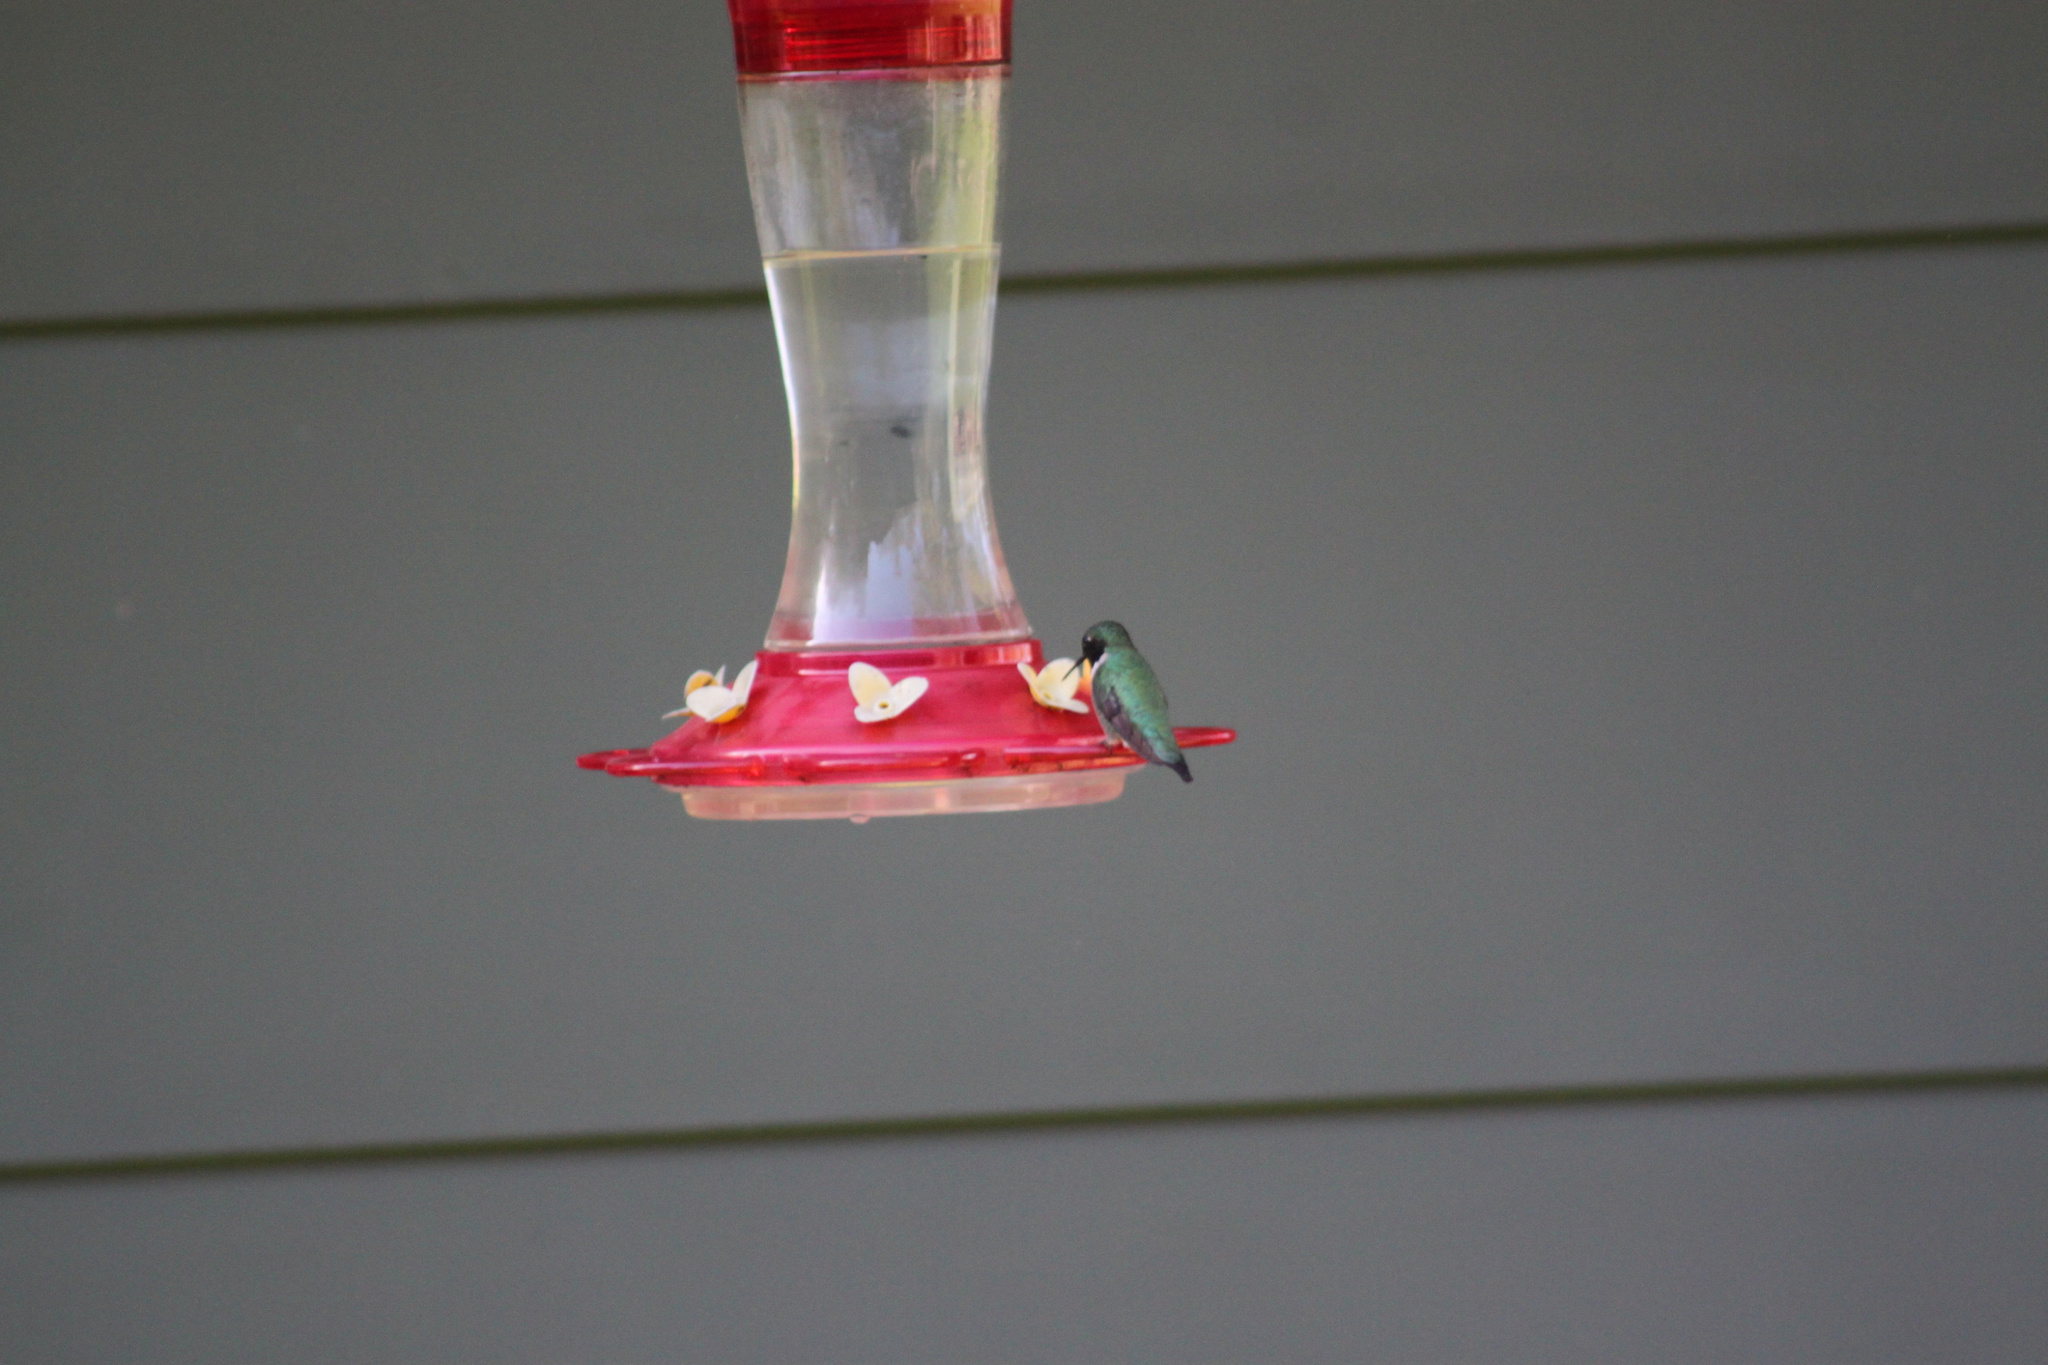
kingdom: Animalia
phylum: Chordata
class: Aves
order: Apodiformes
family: Trochilidae
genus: Archilochus
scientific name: Archilochus colubris
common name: Ruby-throated hummingbird
